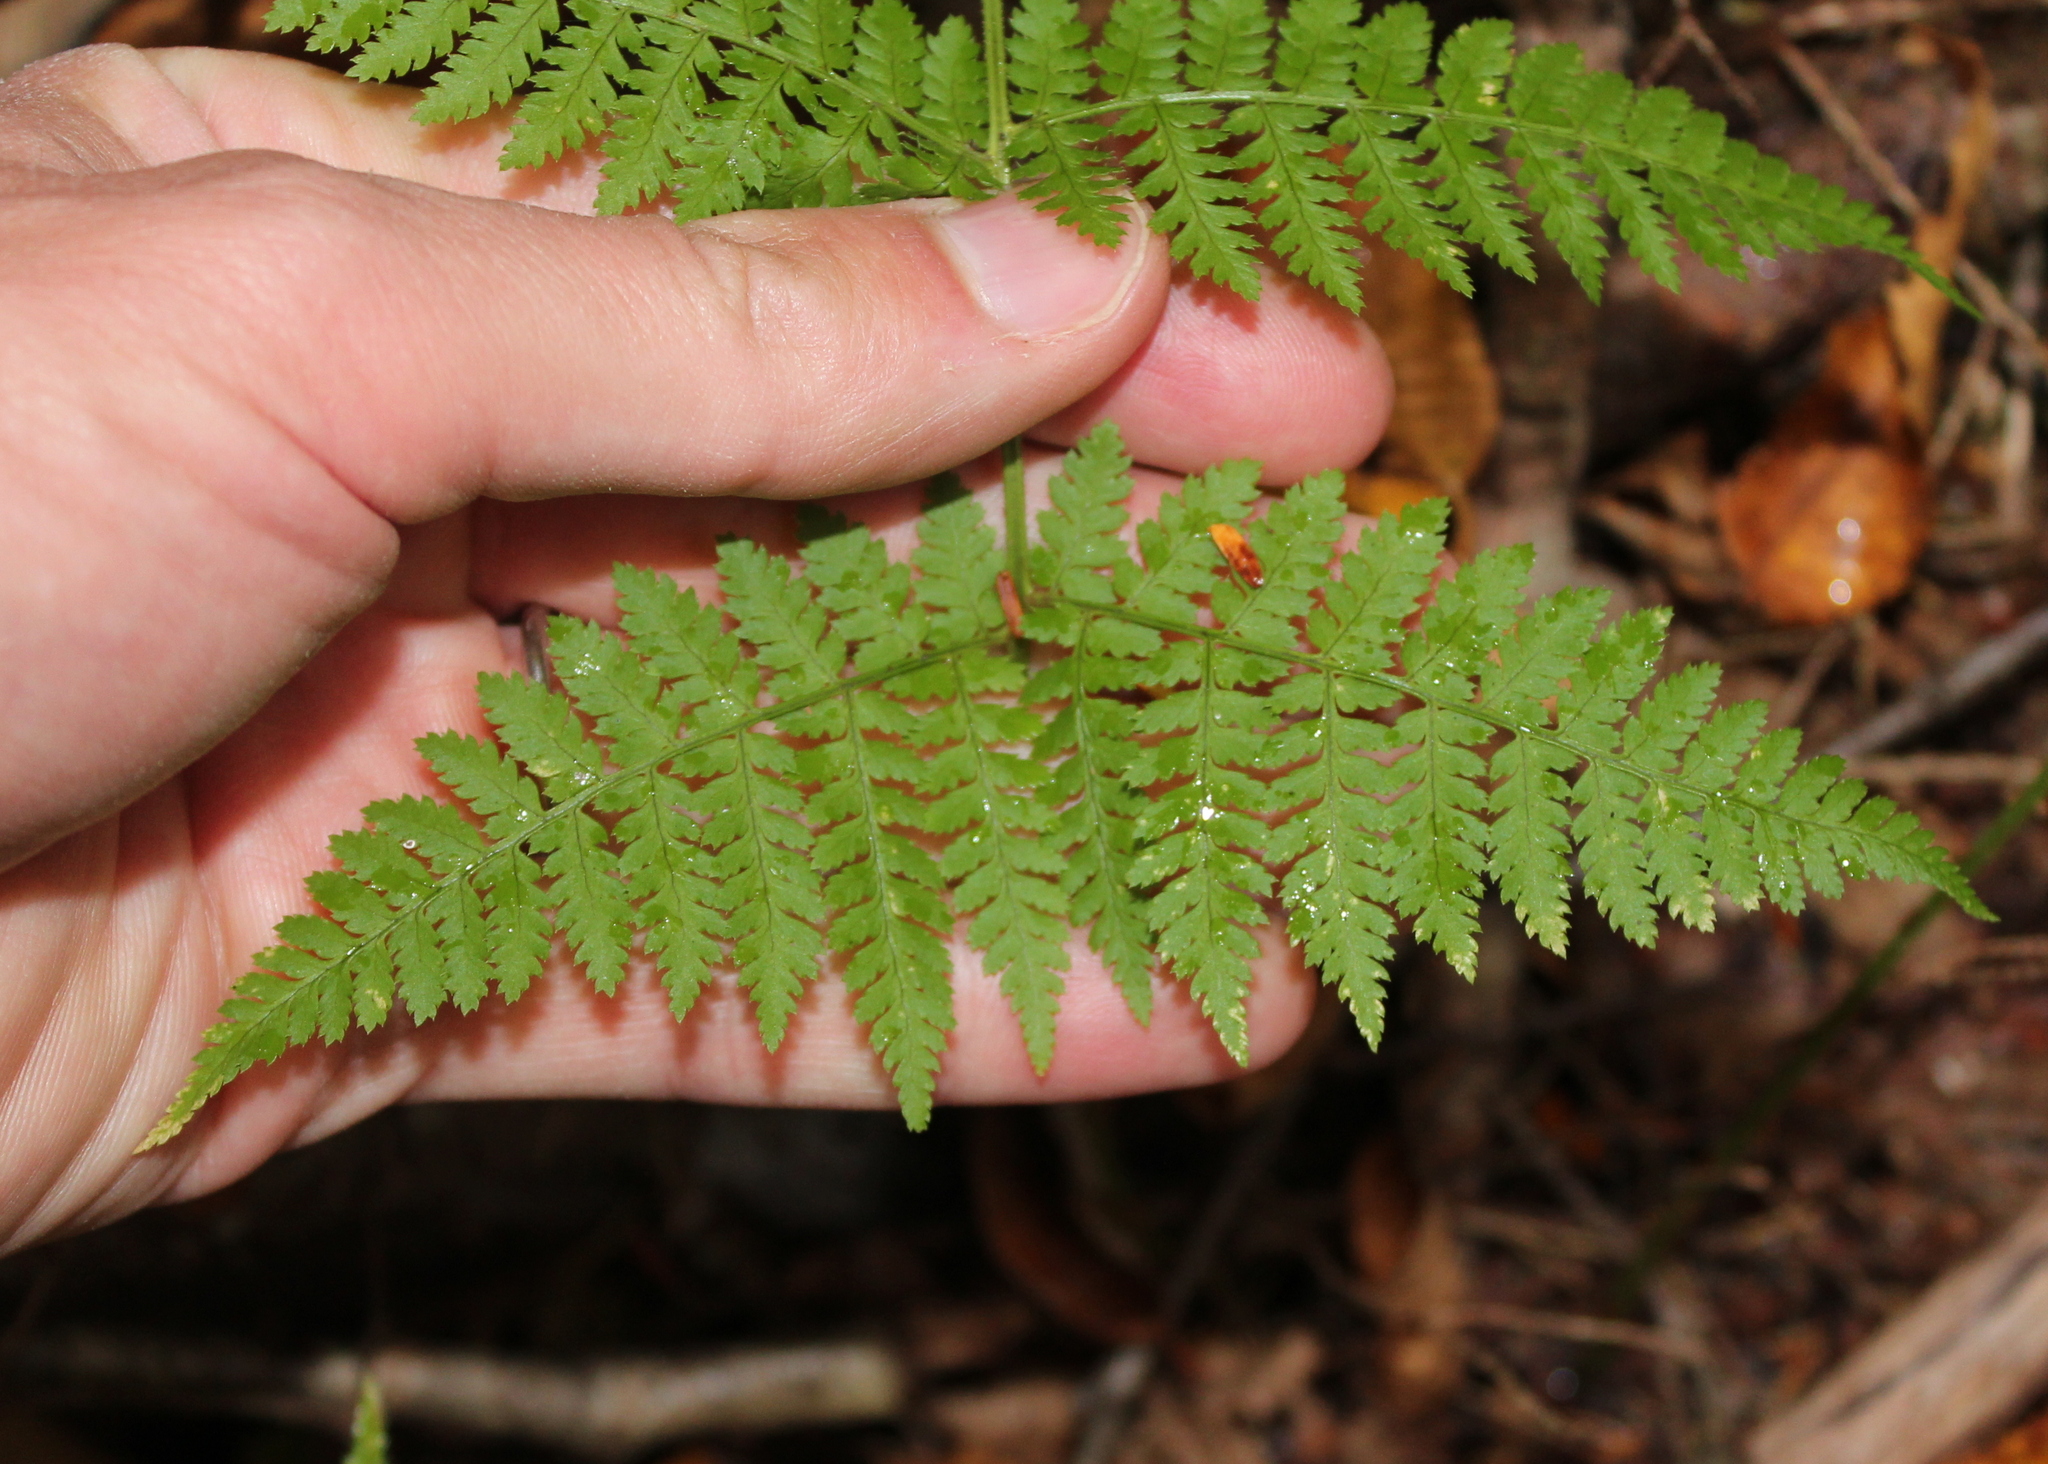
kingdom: Plantae
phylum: Tracheophyta
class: Polypodiopsida
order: Polypodiales
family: Dryopteridaceae
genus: Dryopteris
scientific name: Dryopteris intermedia
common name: Evergreen wood fern
